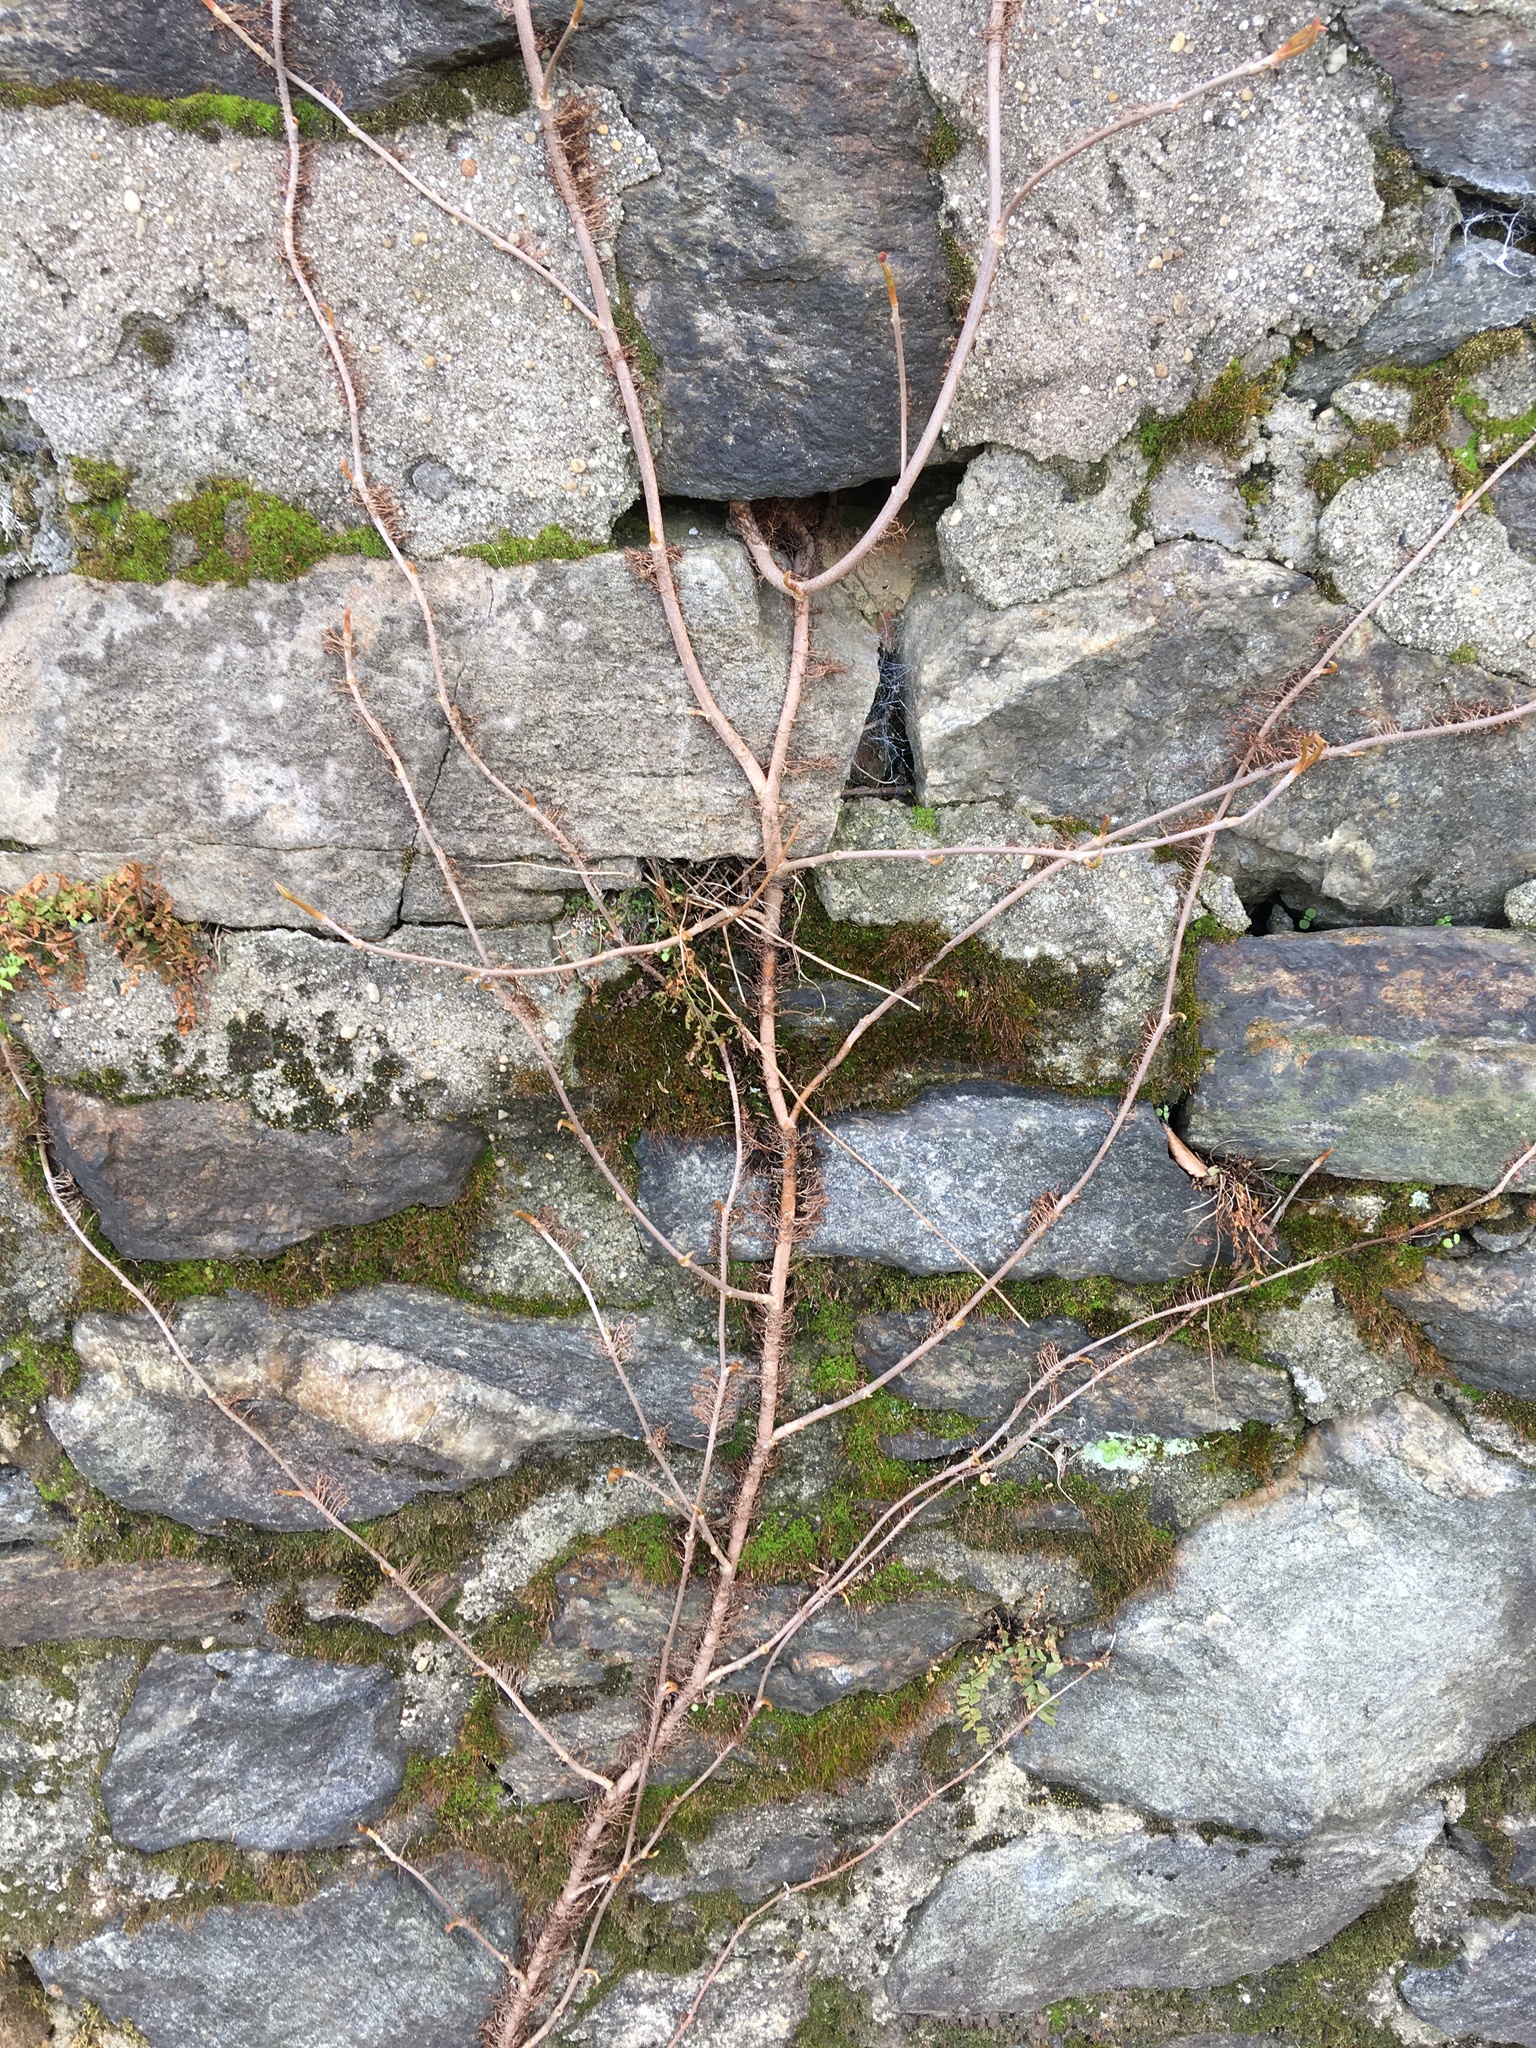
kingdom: Plantae
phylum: Tracheophyta
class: Magnoliopsida
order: Sapindales
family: Anacardiaceae
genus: Toxicodendron
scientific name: Toxicodendron radicans
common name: Poison ivy
